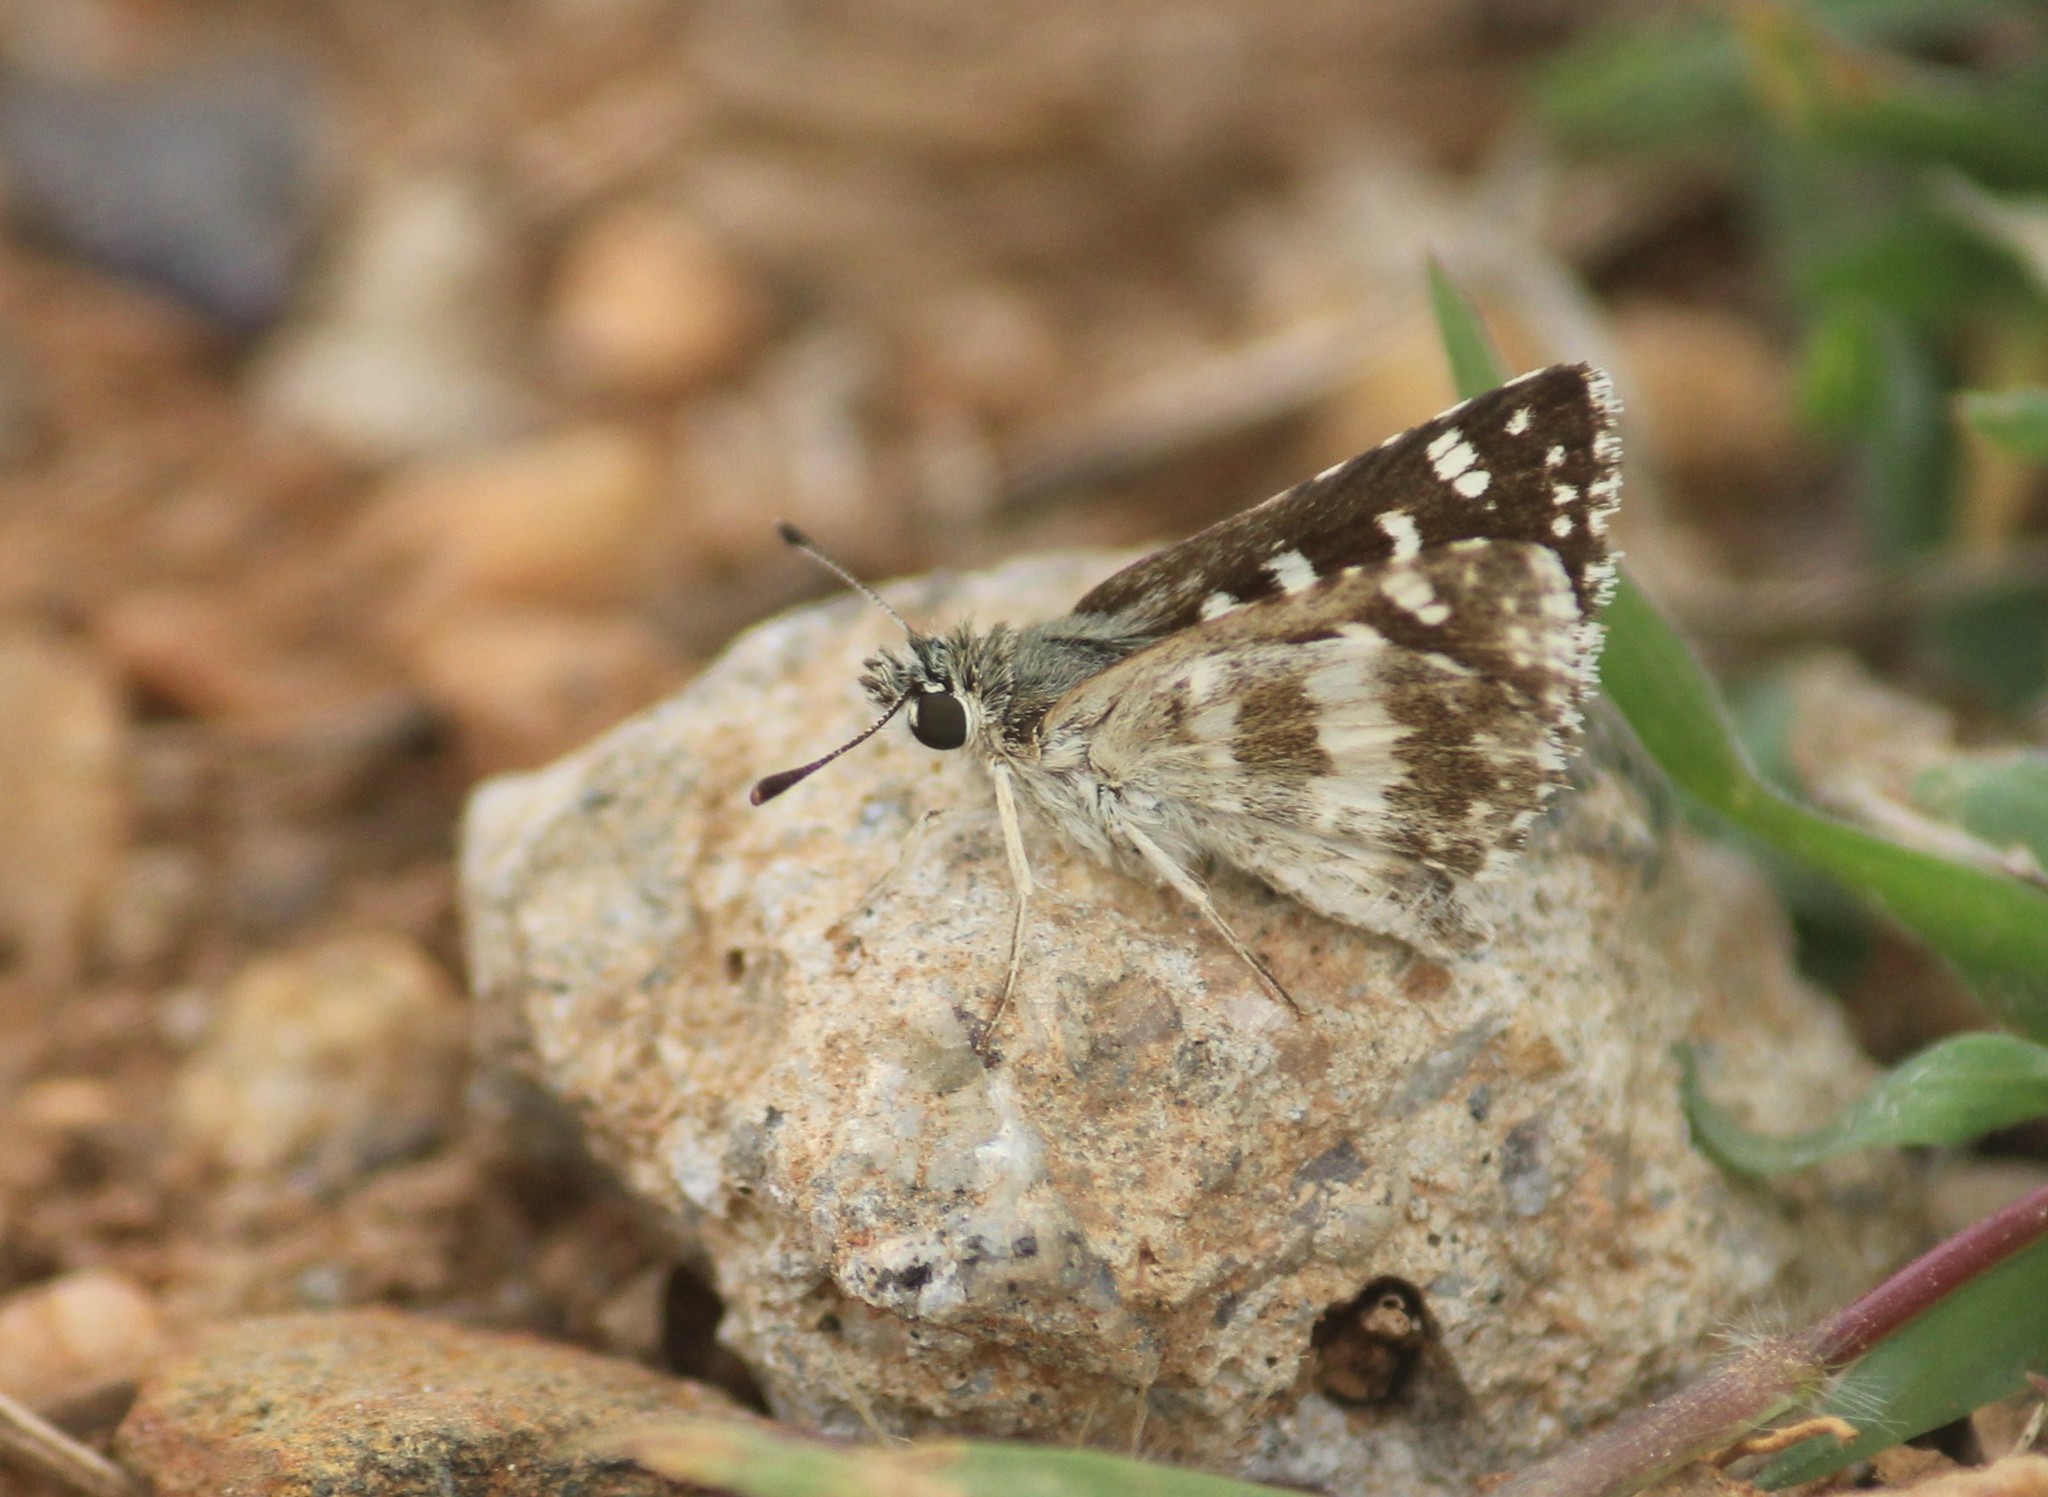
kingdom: Animalia
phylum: Arthropoda
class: Insecta
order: Lepidoptera
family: Hesperiidae
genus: Spialia
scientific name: Spialia galba
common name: Indian skipper
